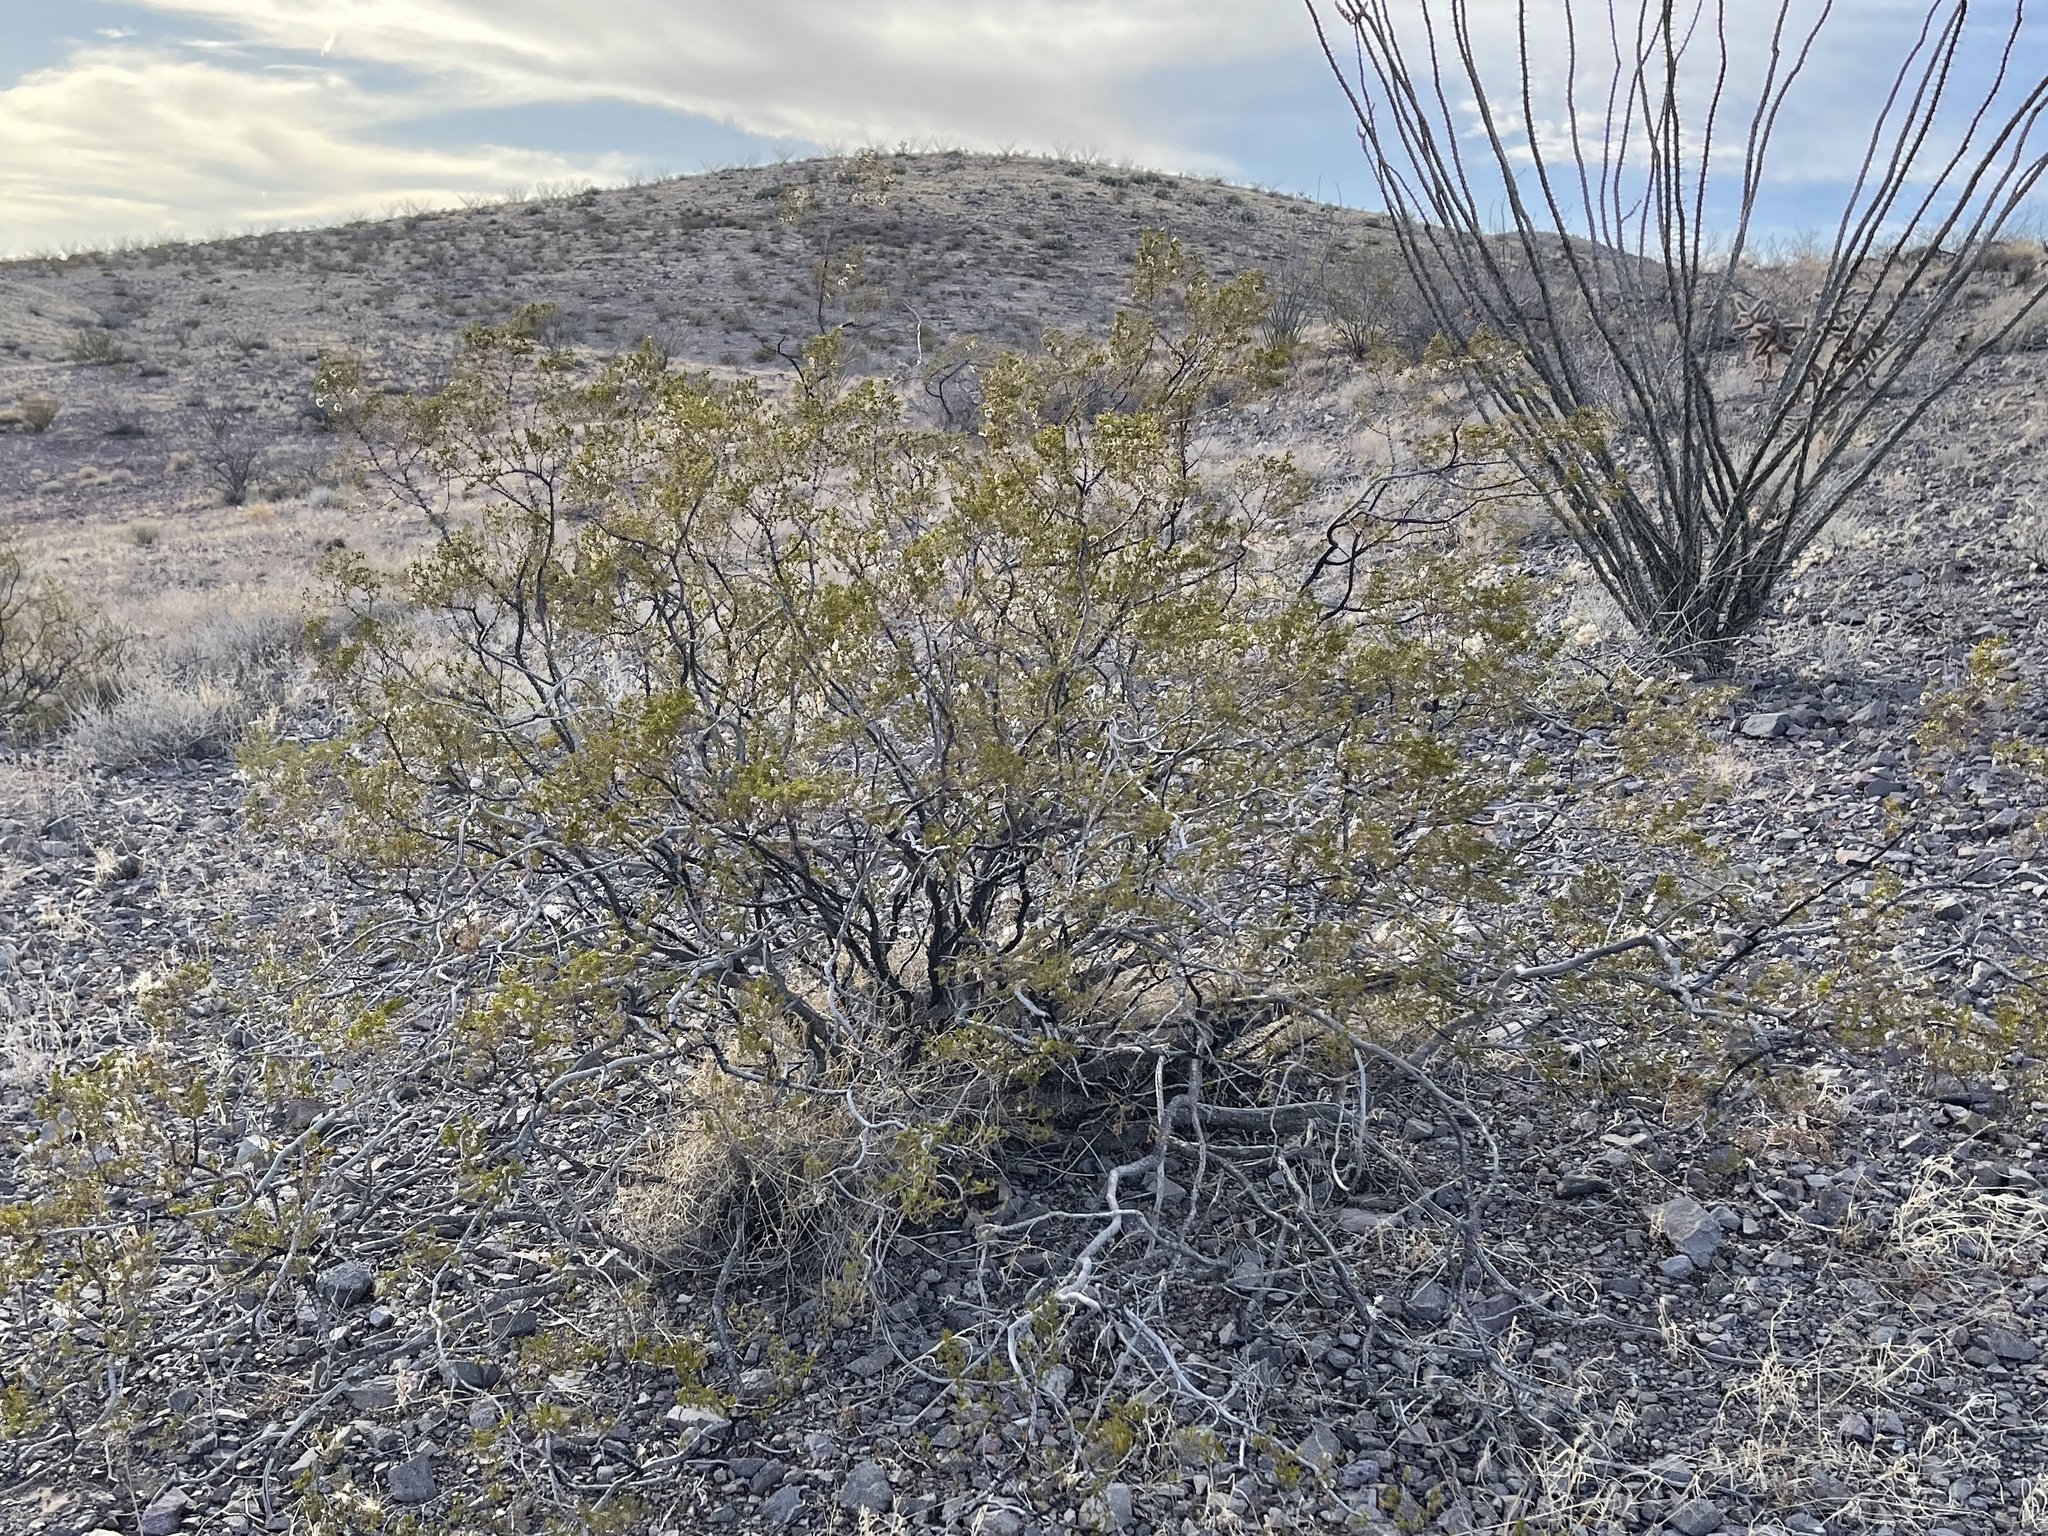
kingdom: Plantae
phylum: Tracheophyta
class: Magnoliopsida
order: Zygophyllales
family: Zygophyllaceae
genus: Larrea
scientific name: Larrea tridentata
